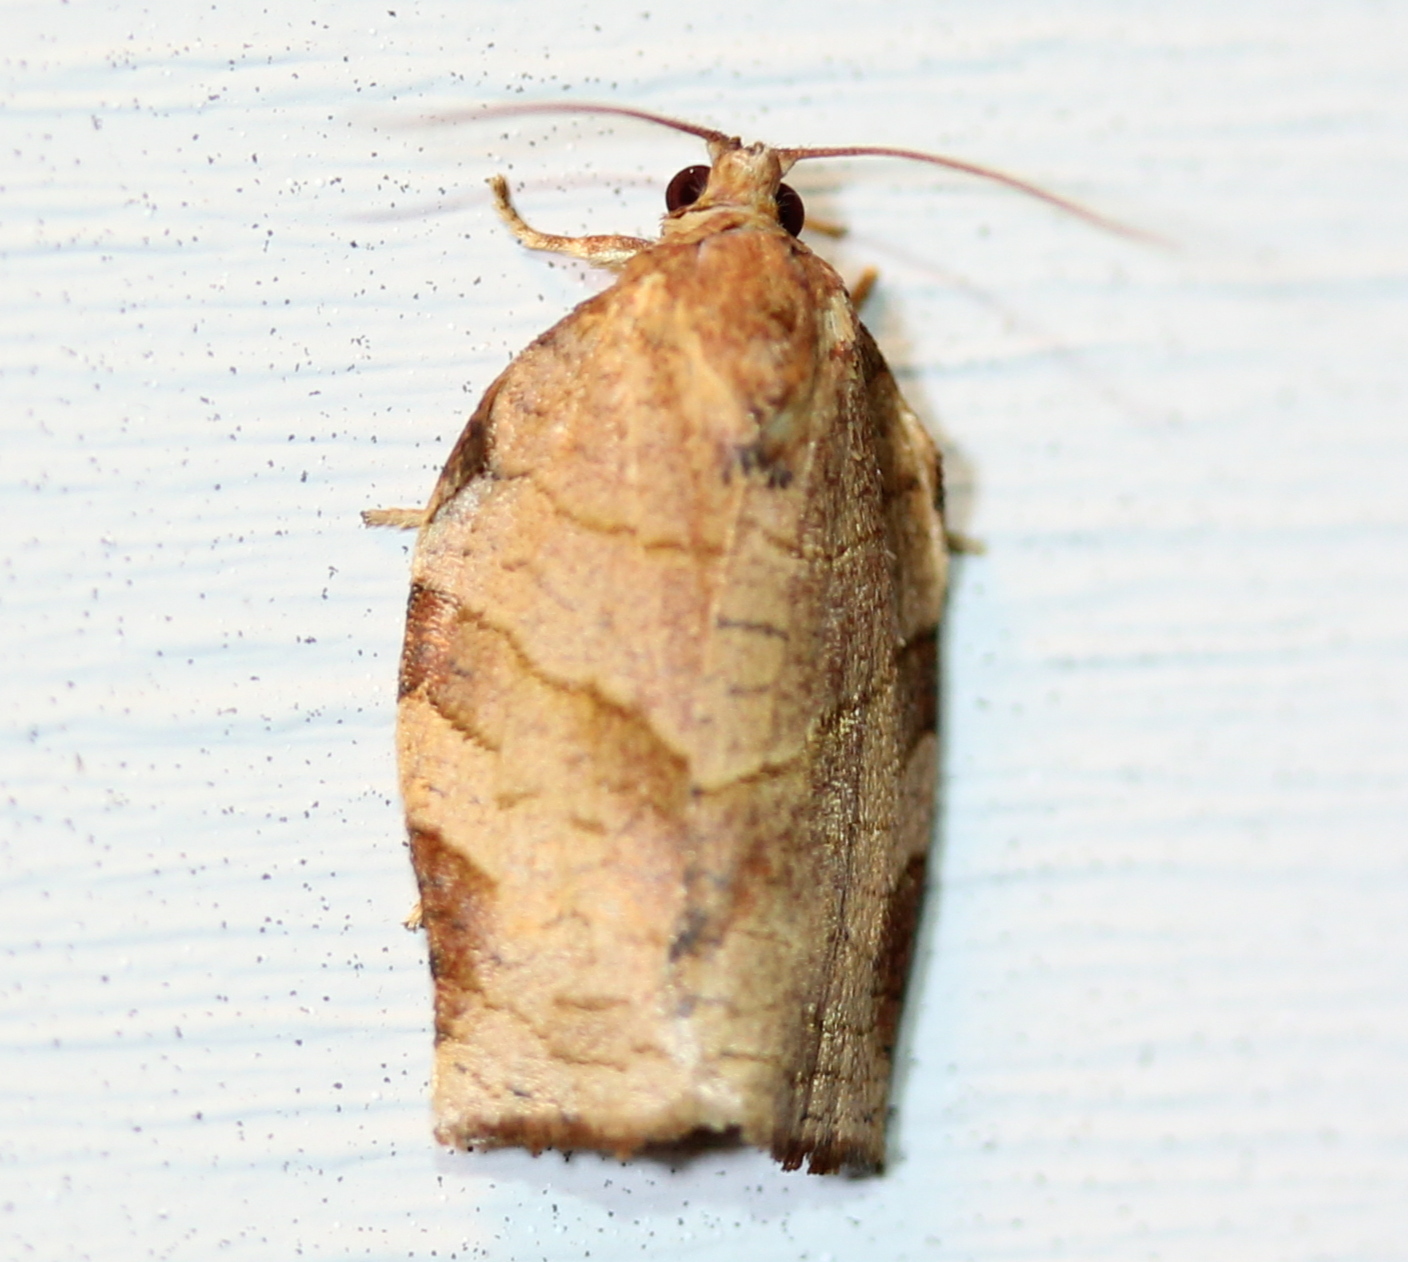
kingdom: Animalia
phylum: Arthropoda
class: Insecta
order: Lepidoptera
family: Tortricidae
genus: Choristoneura
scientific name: Choristoneura rosaceana
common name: Oblique-banded leafroller moth
